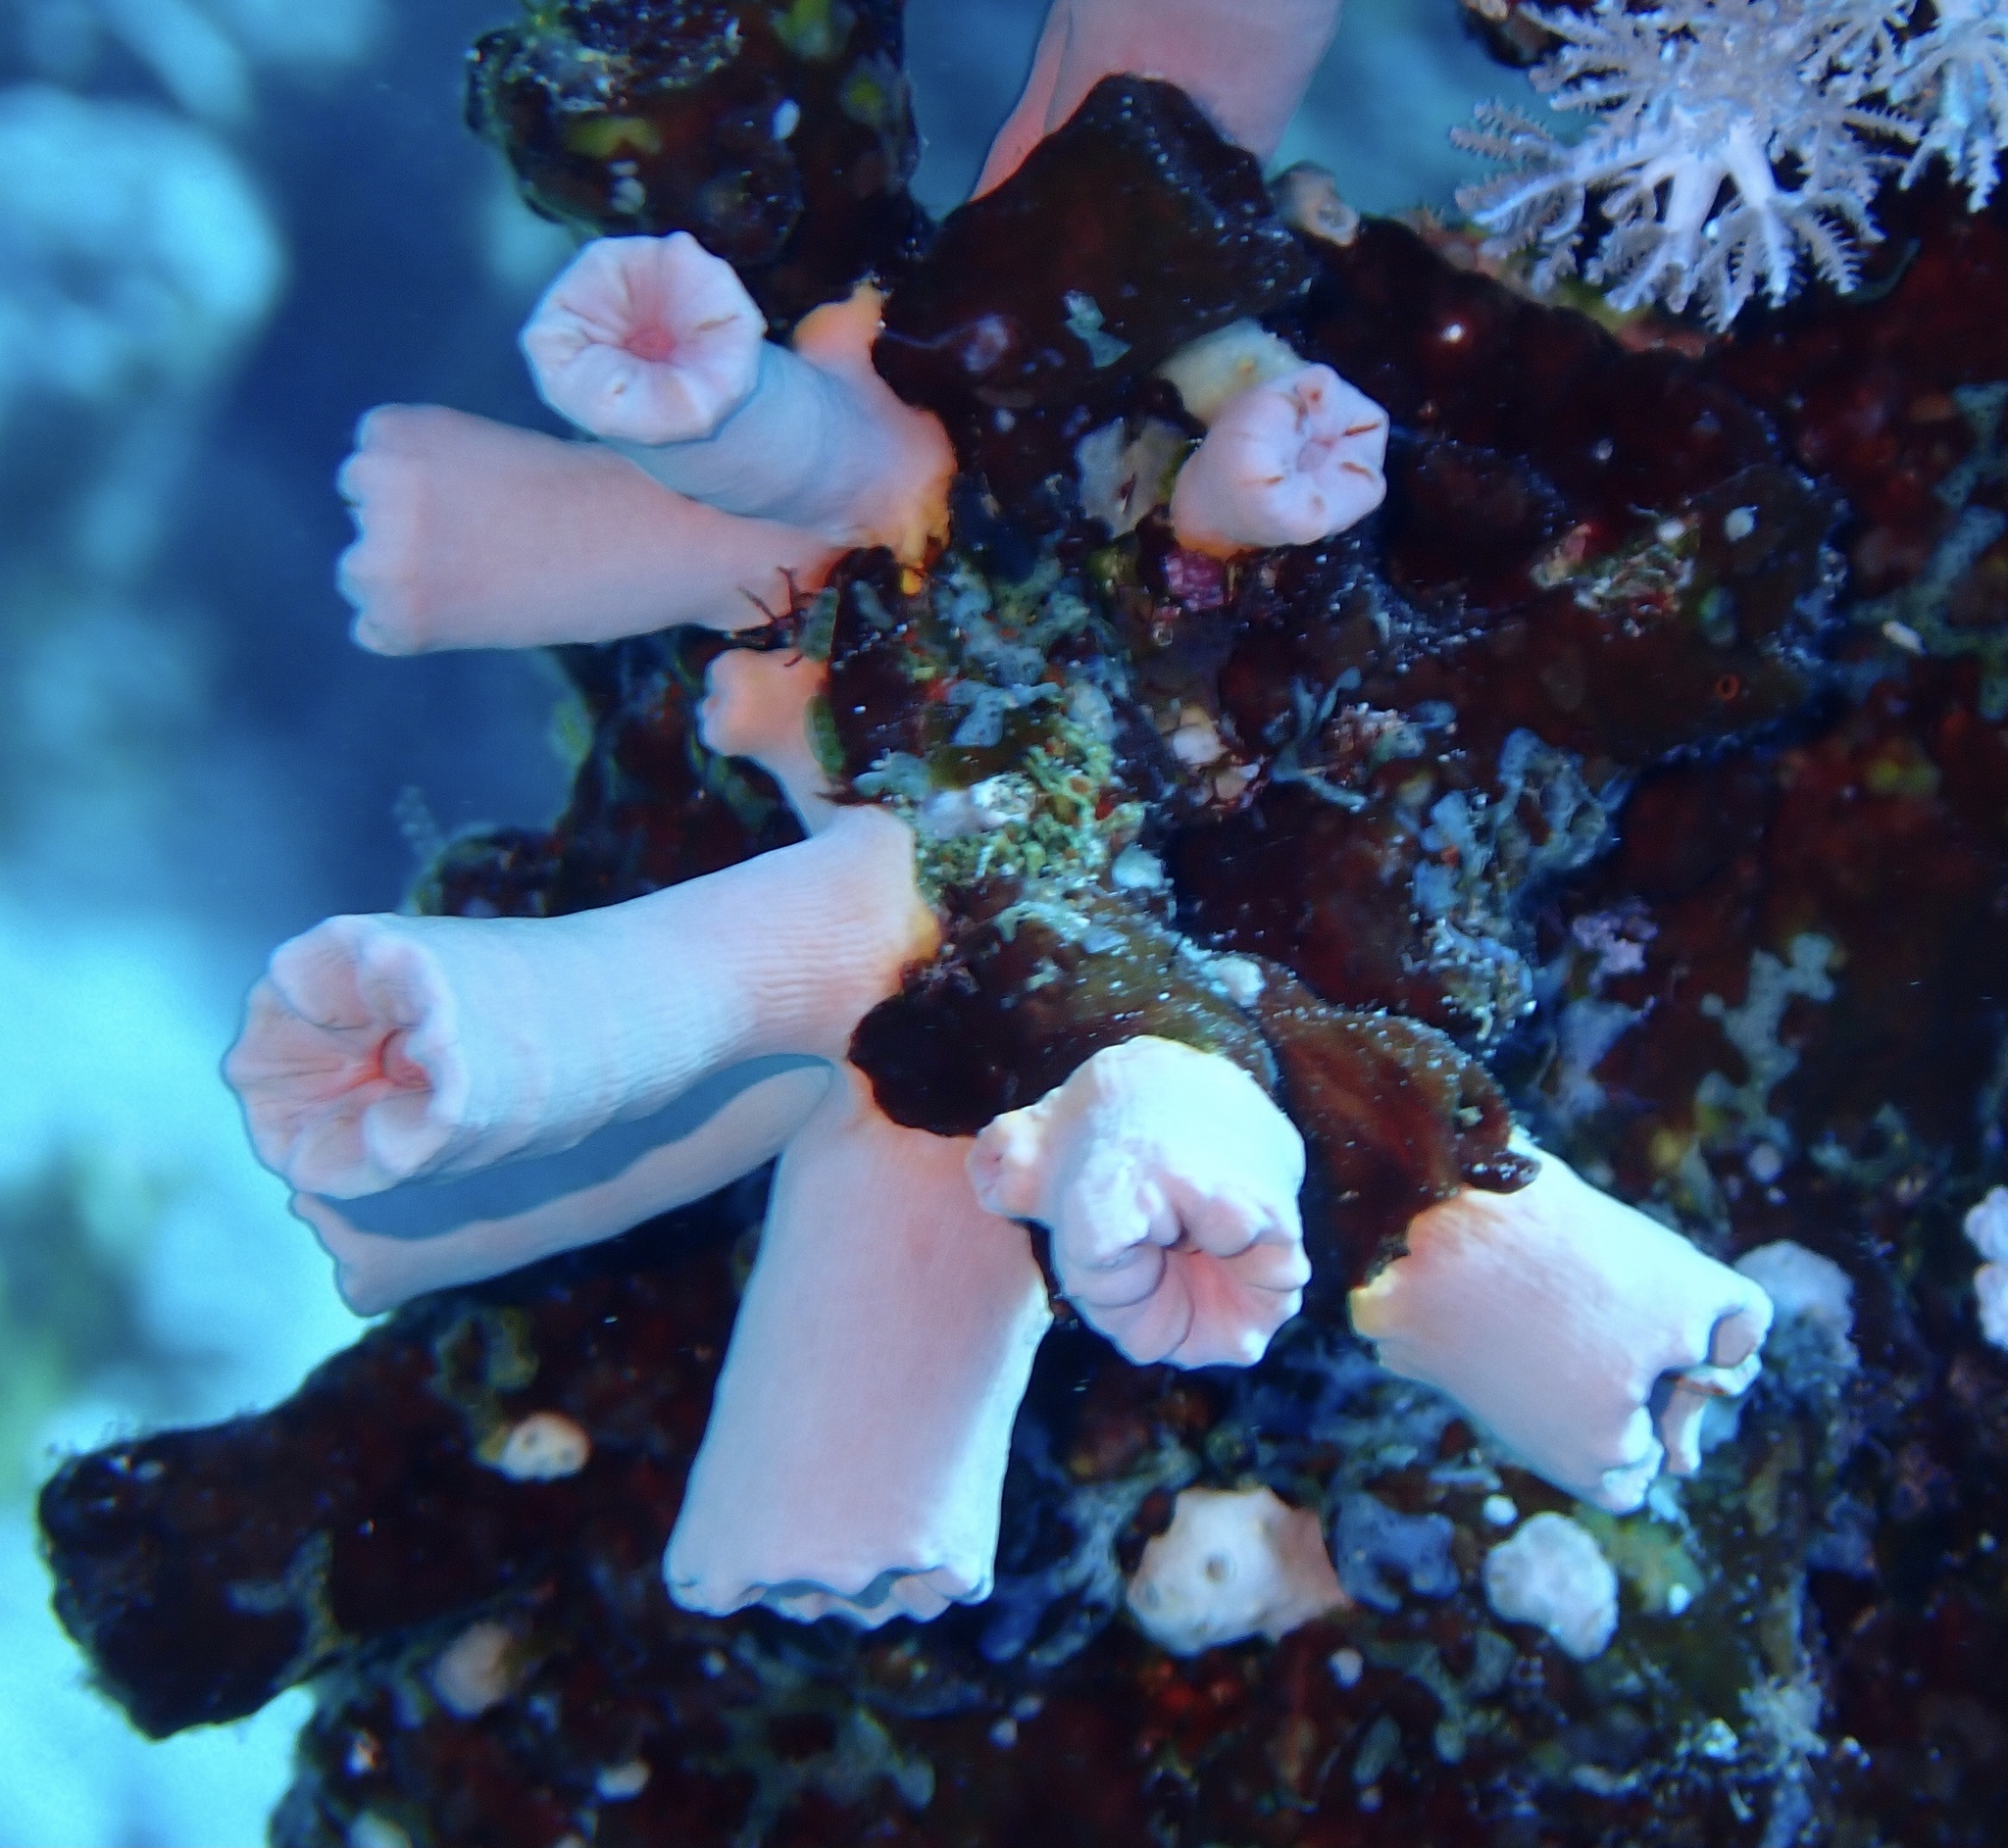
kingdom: Animalia
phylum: Cnidaria
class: Anthozoa
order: Scleractinia
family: Dendrophylliidae
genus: Cladopsammia
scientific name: Cladopsammia gracilis
